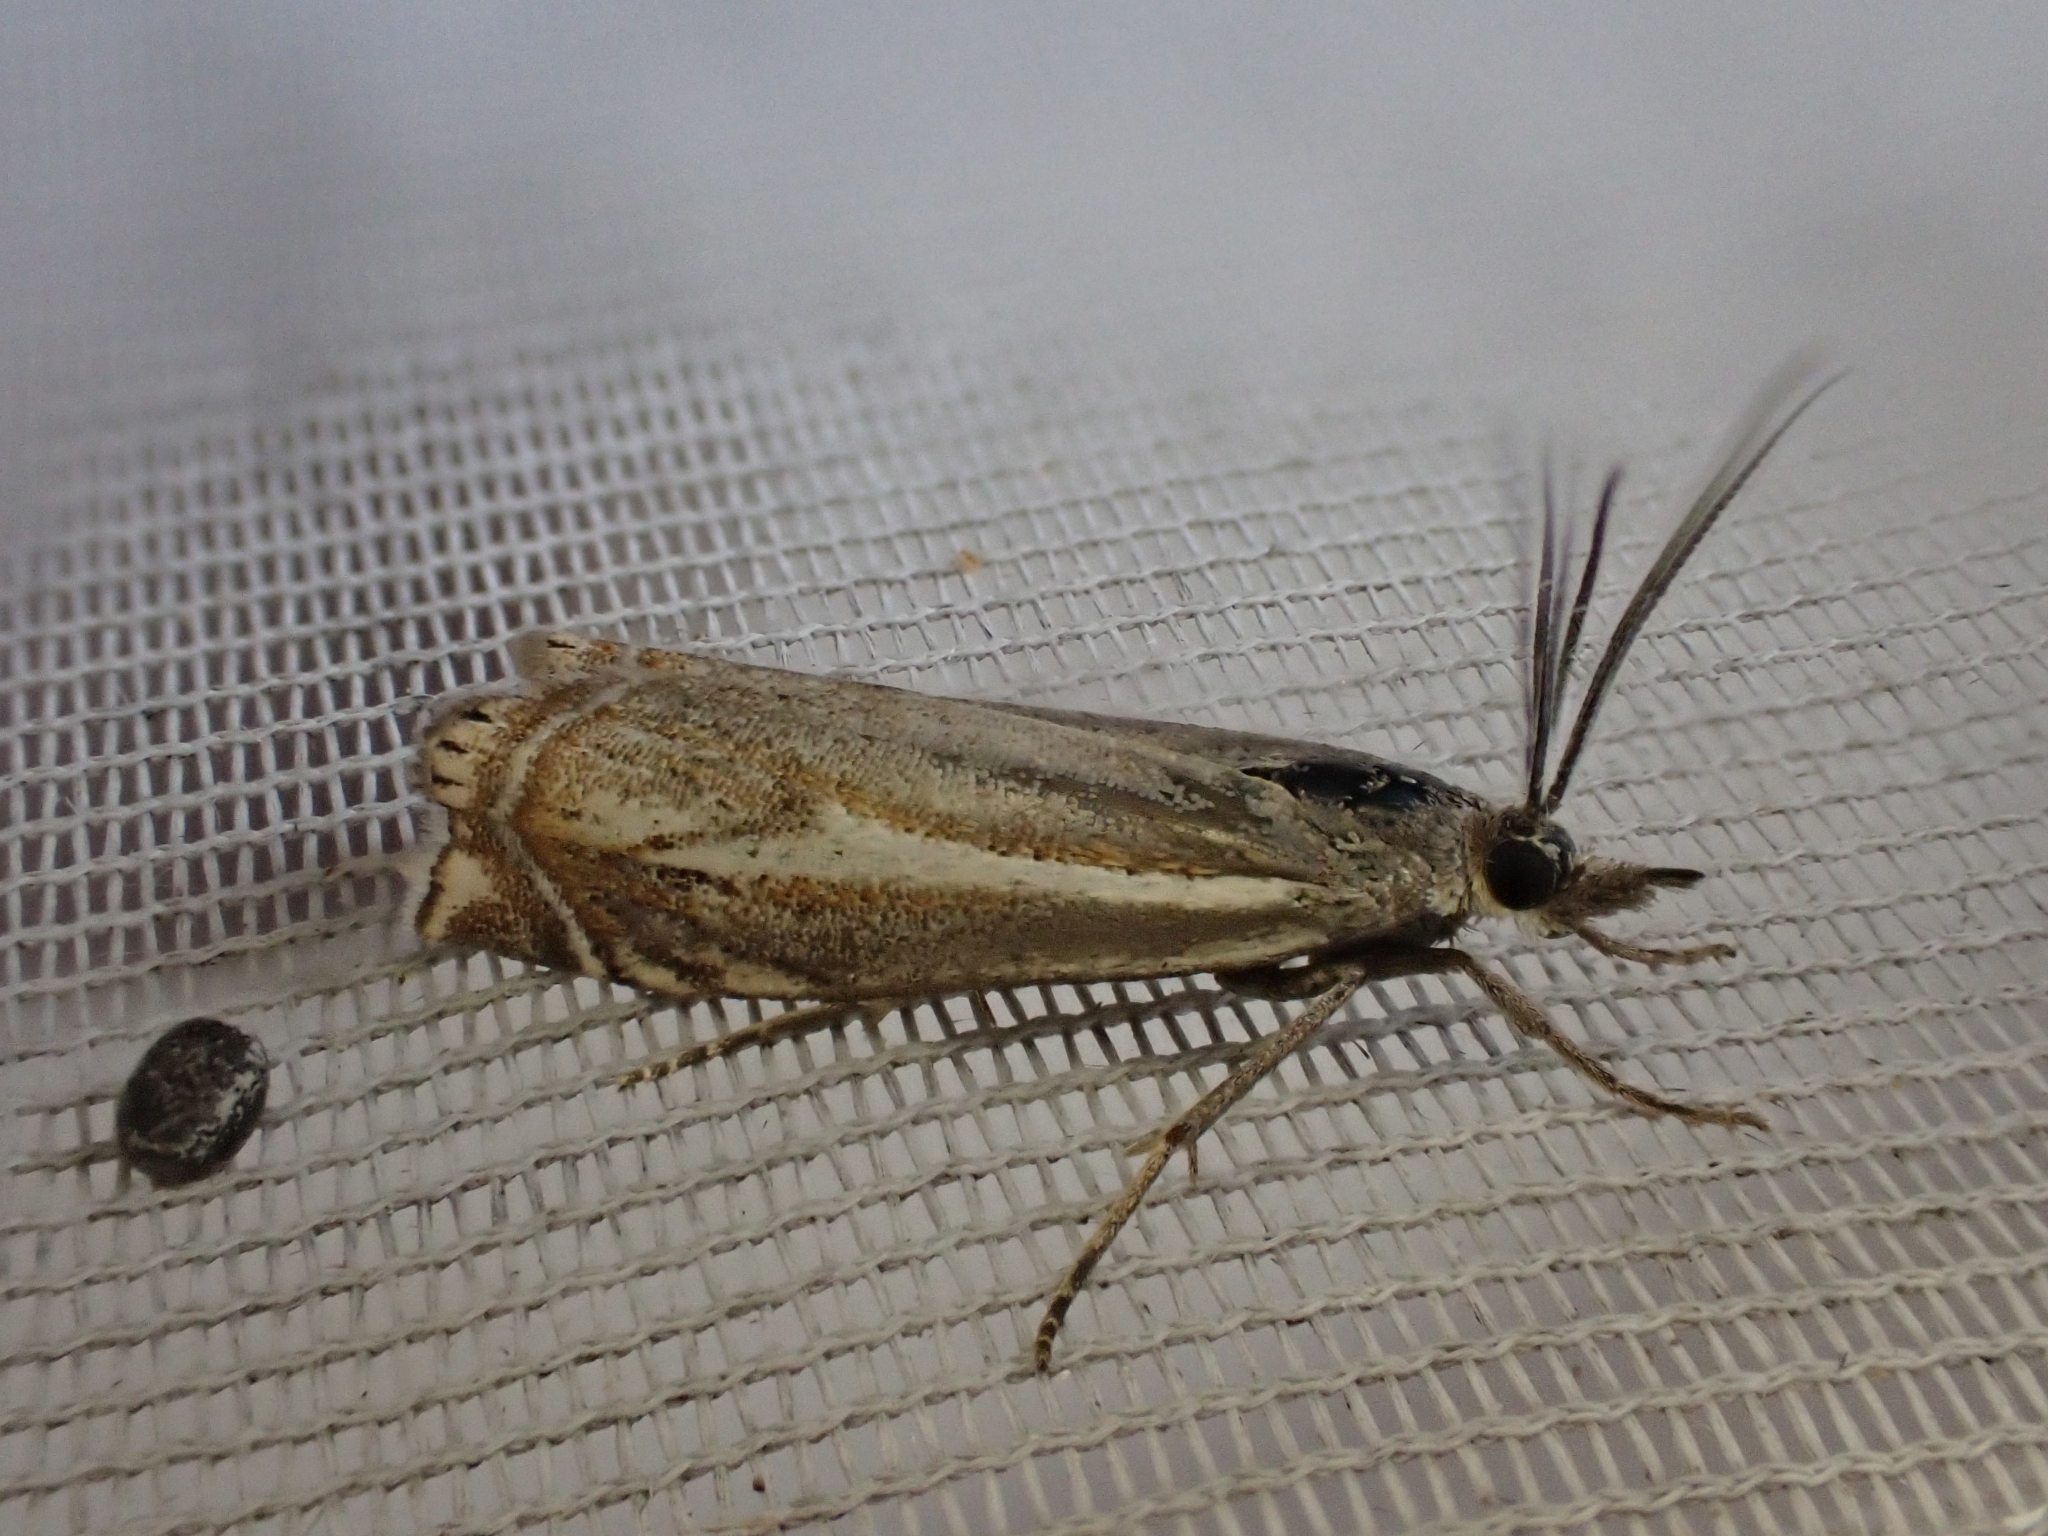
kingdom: Animalia
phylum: Arthropoda
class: Insecta
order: Lepidoptera
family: Crambidae
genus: Crambus
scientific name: Crambus nemorella
